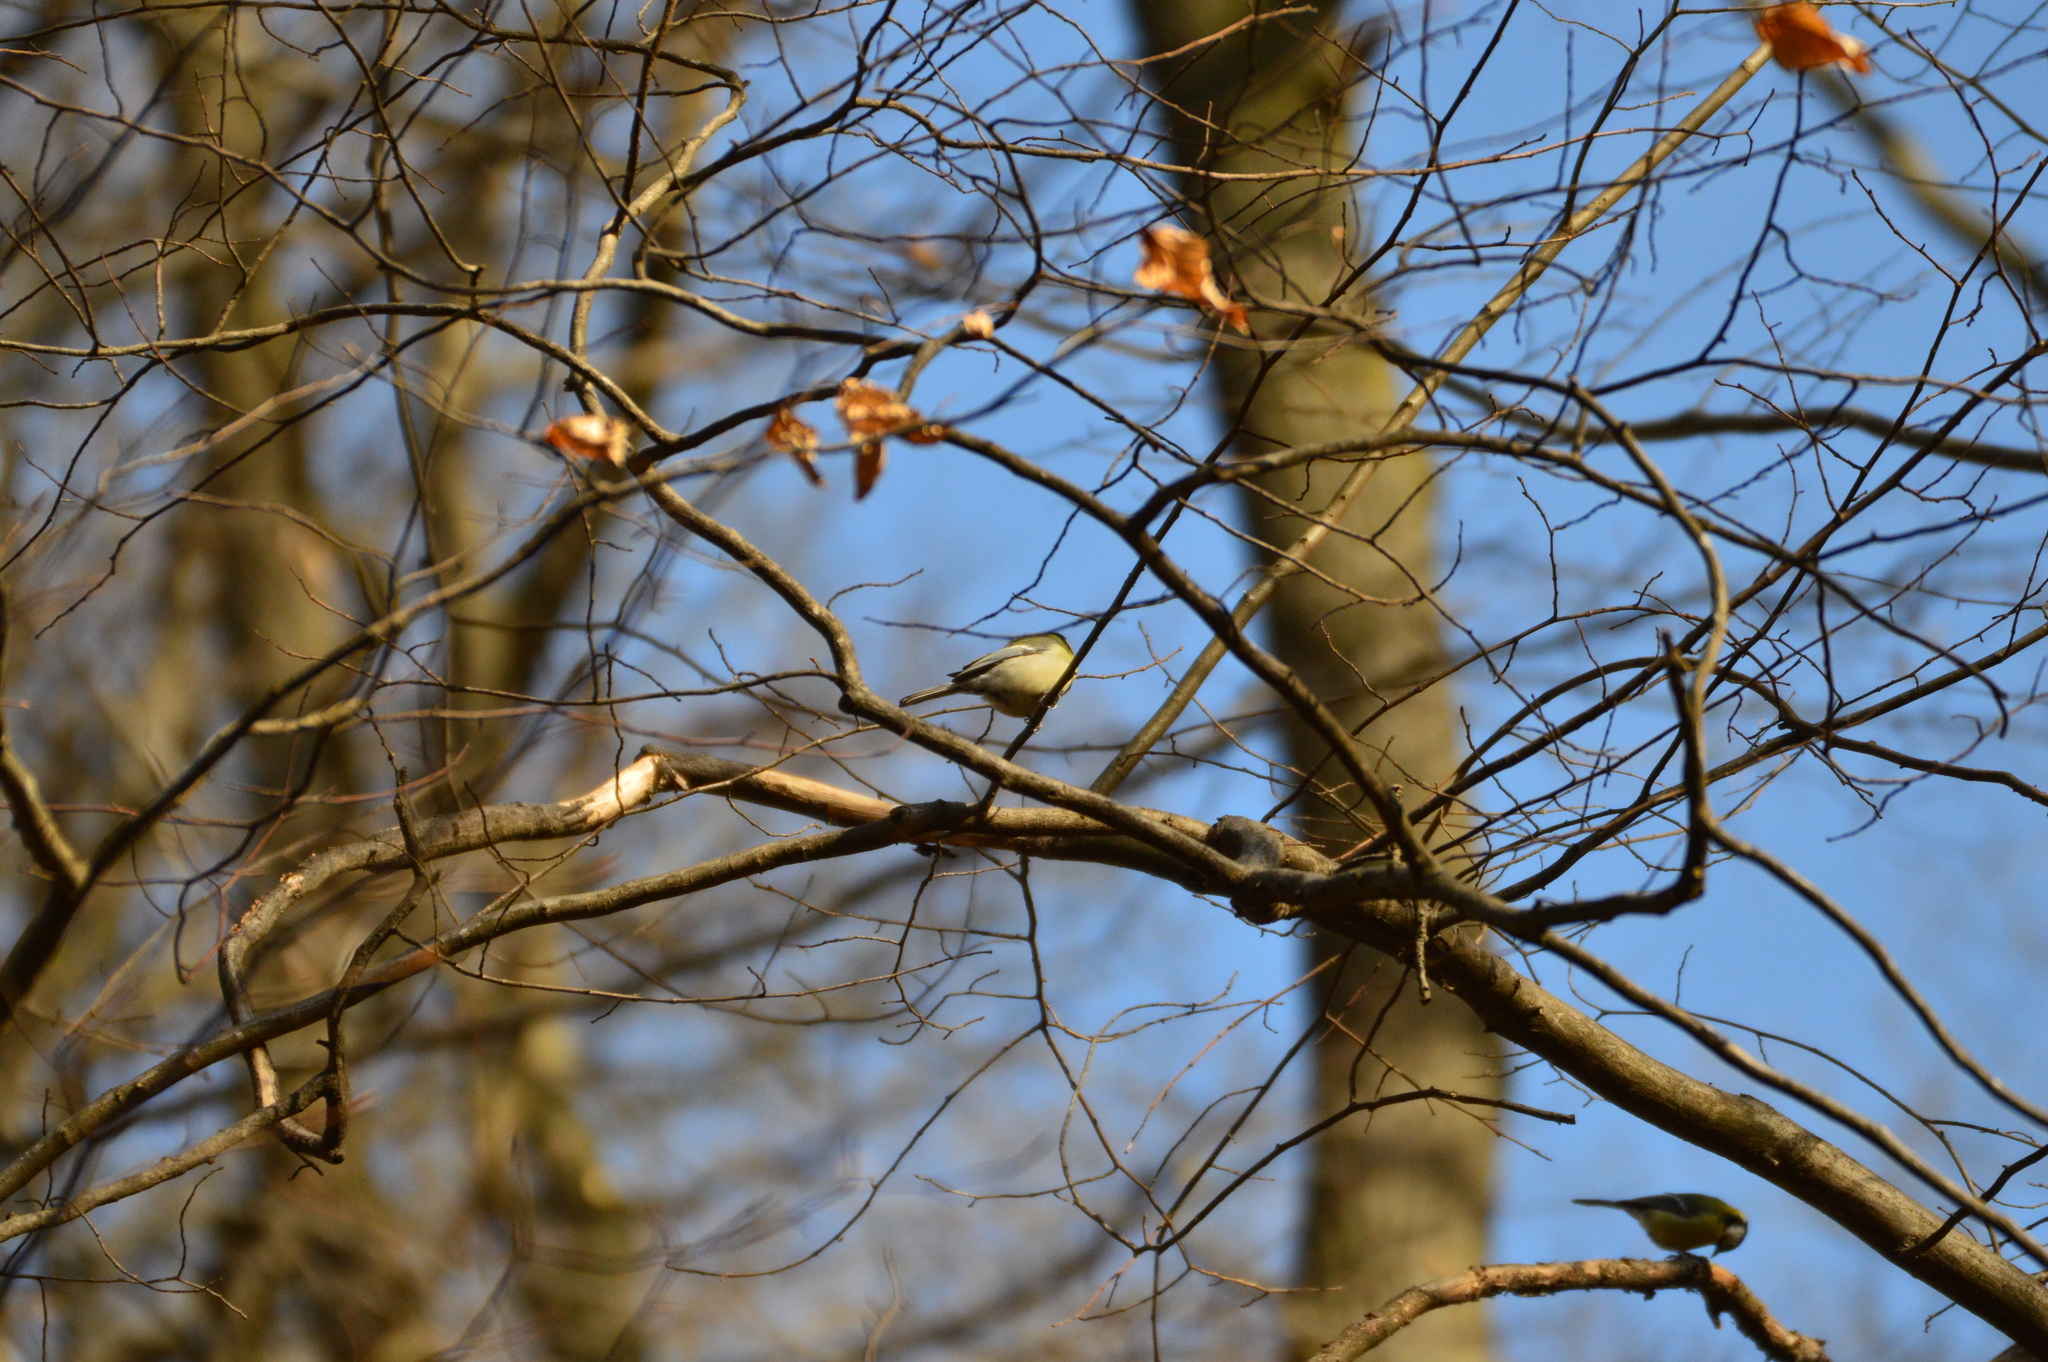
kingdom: Animalia
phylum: Chordata
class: Aves
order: Passeriformes
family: Paridae
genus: Parus
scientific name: Parus major
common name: Great tit
